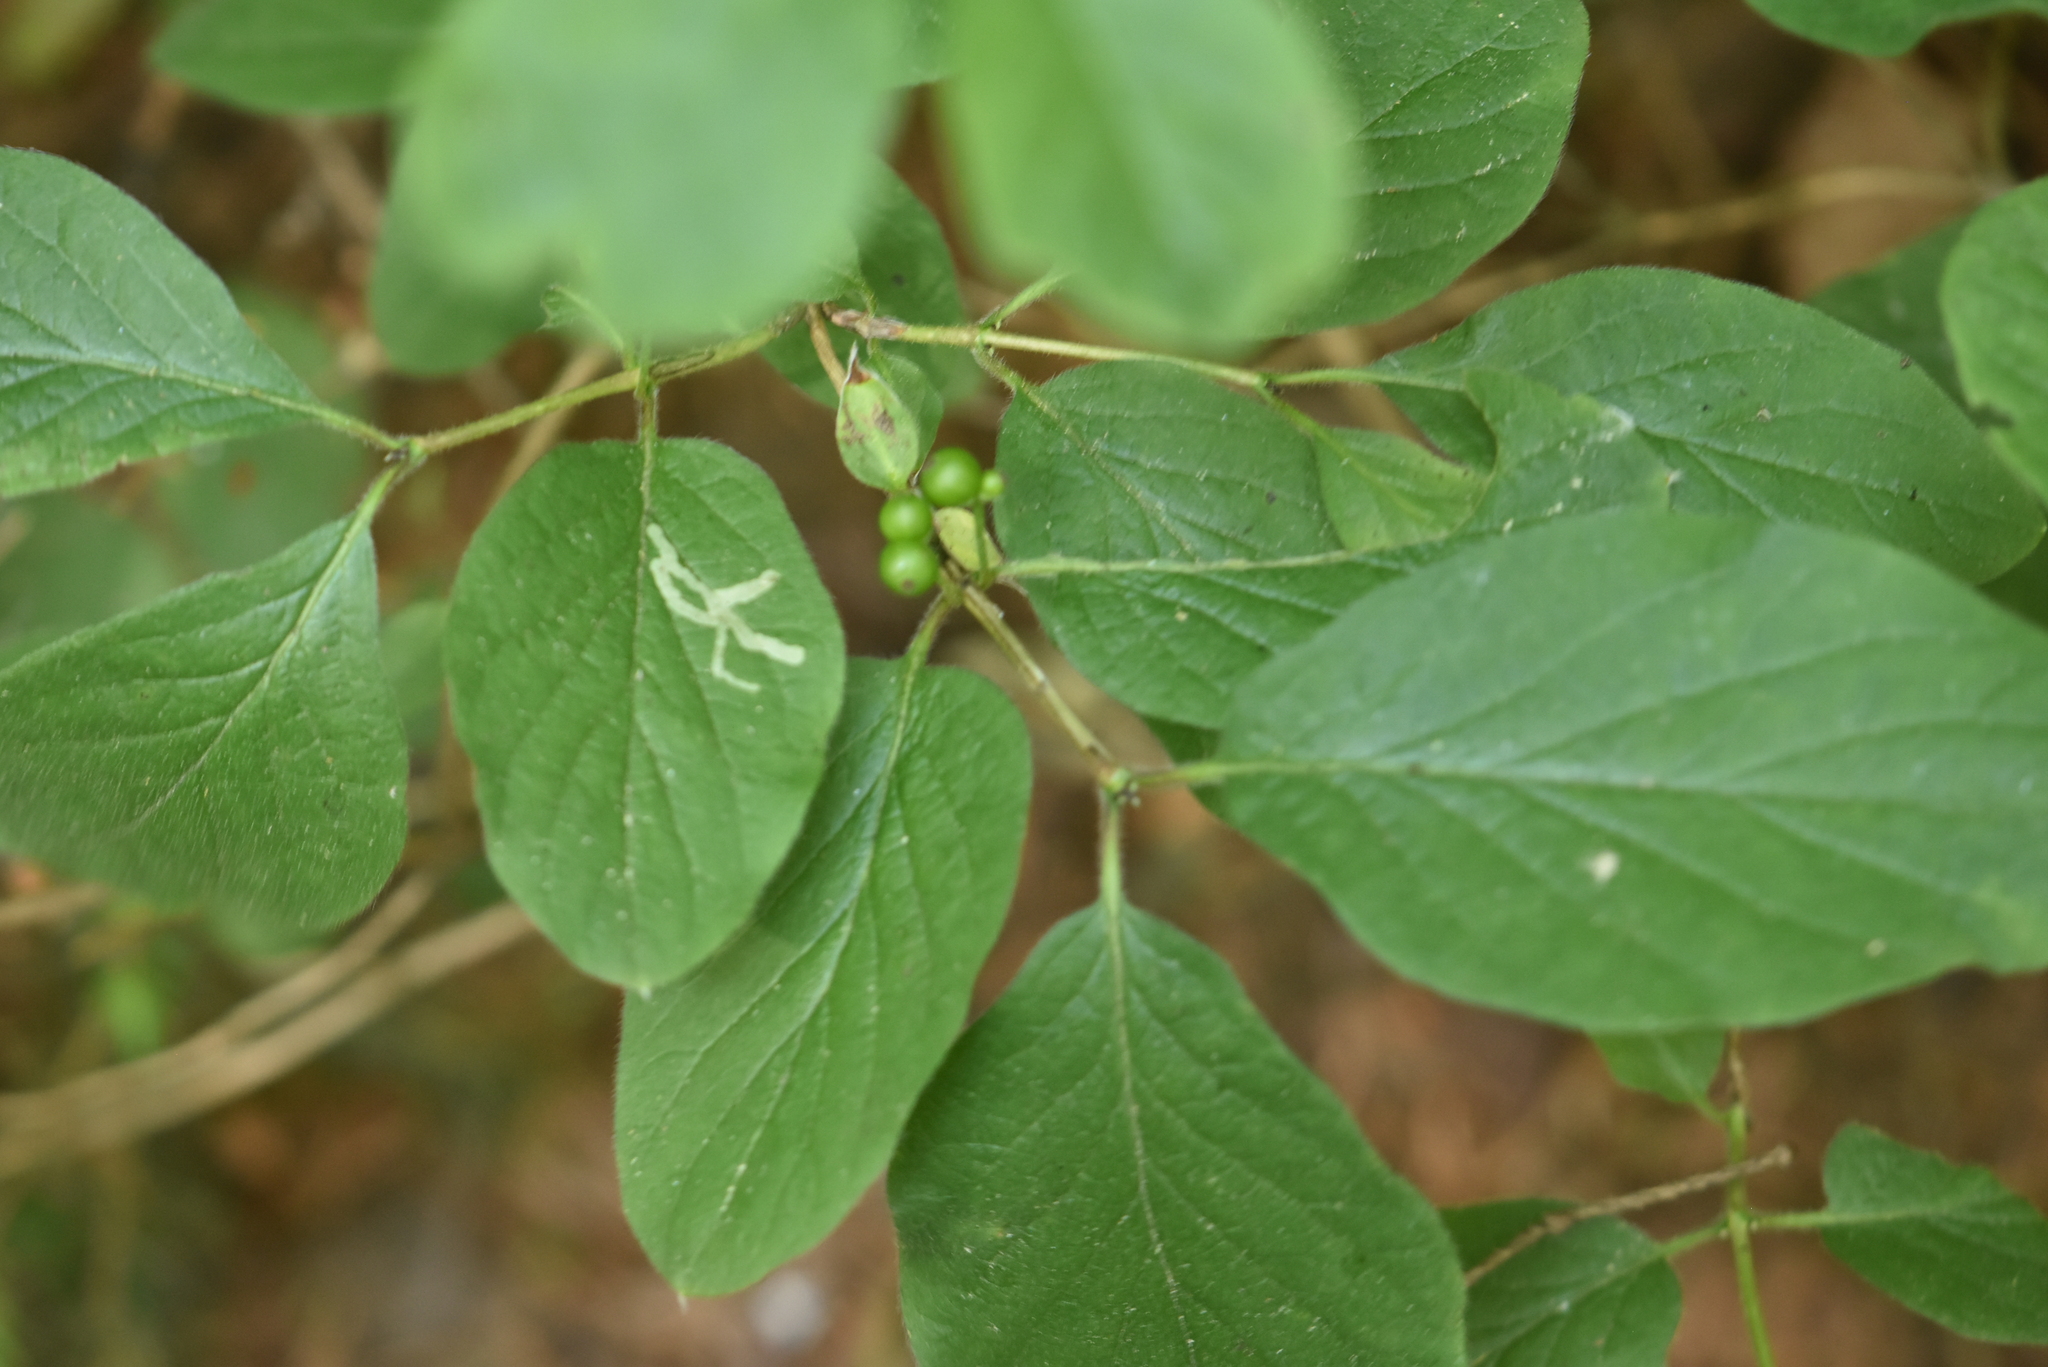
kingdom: Plantae
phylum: Tracheophyta
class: Magnoliopsida
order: Dipsacales
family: Caprifoliaceae
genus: Lonicera
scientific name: Lonicera xylosteum
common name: Fly honeysuckle
